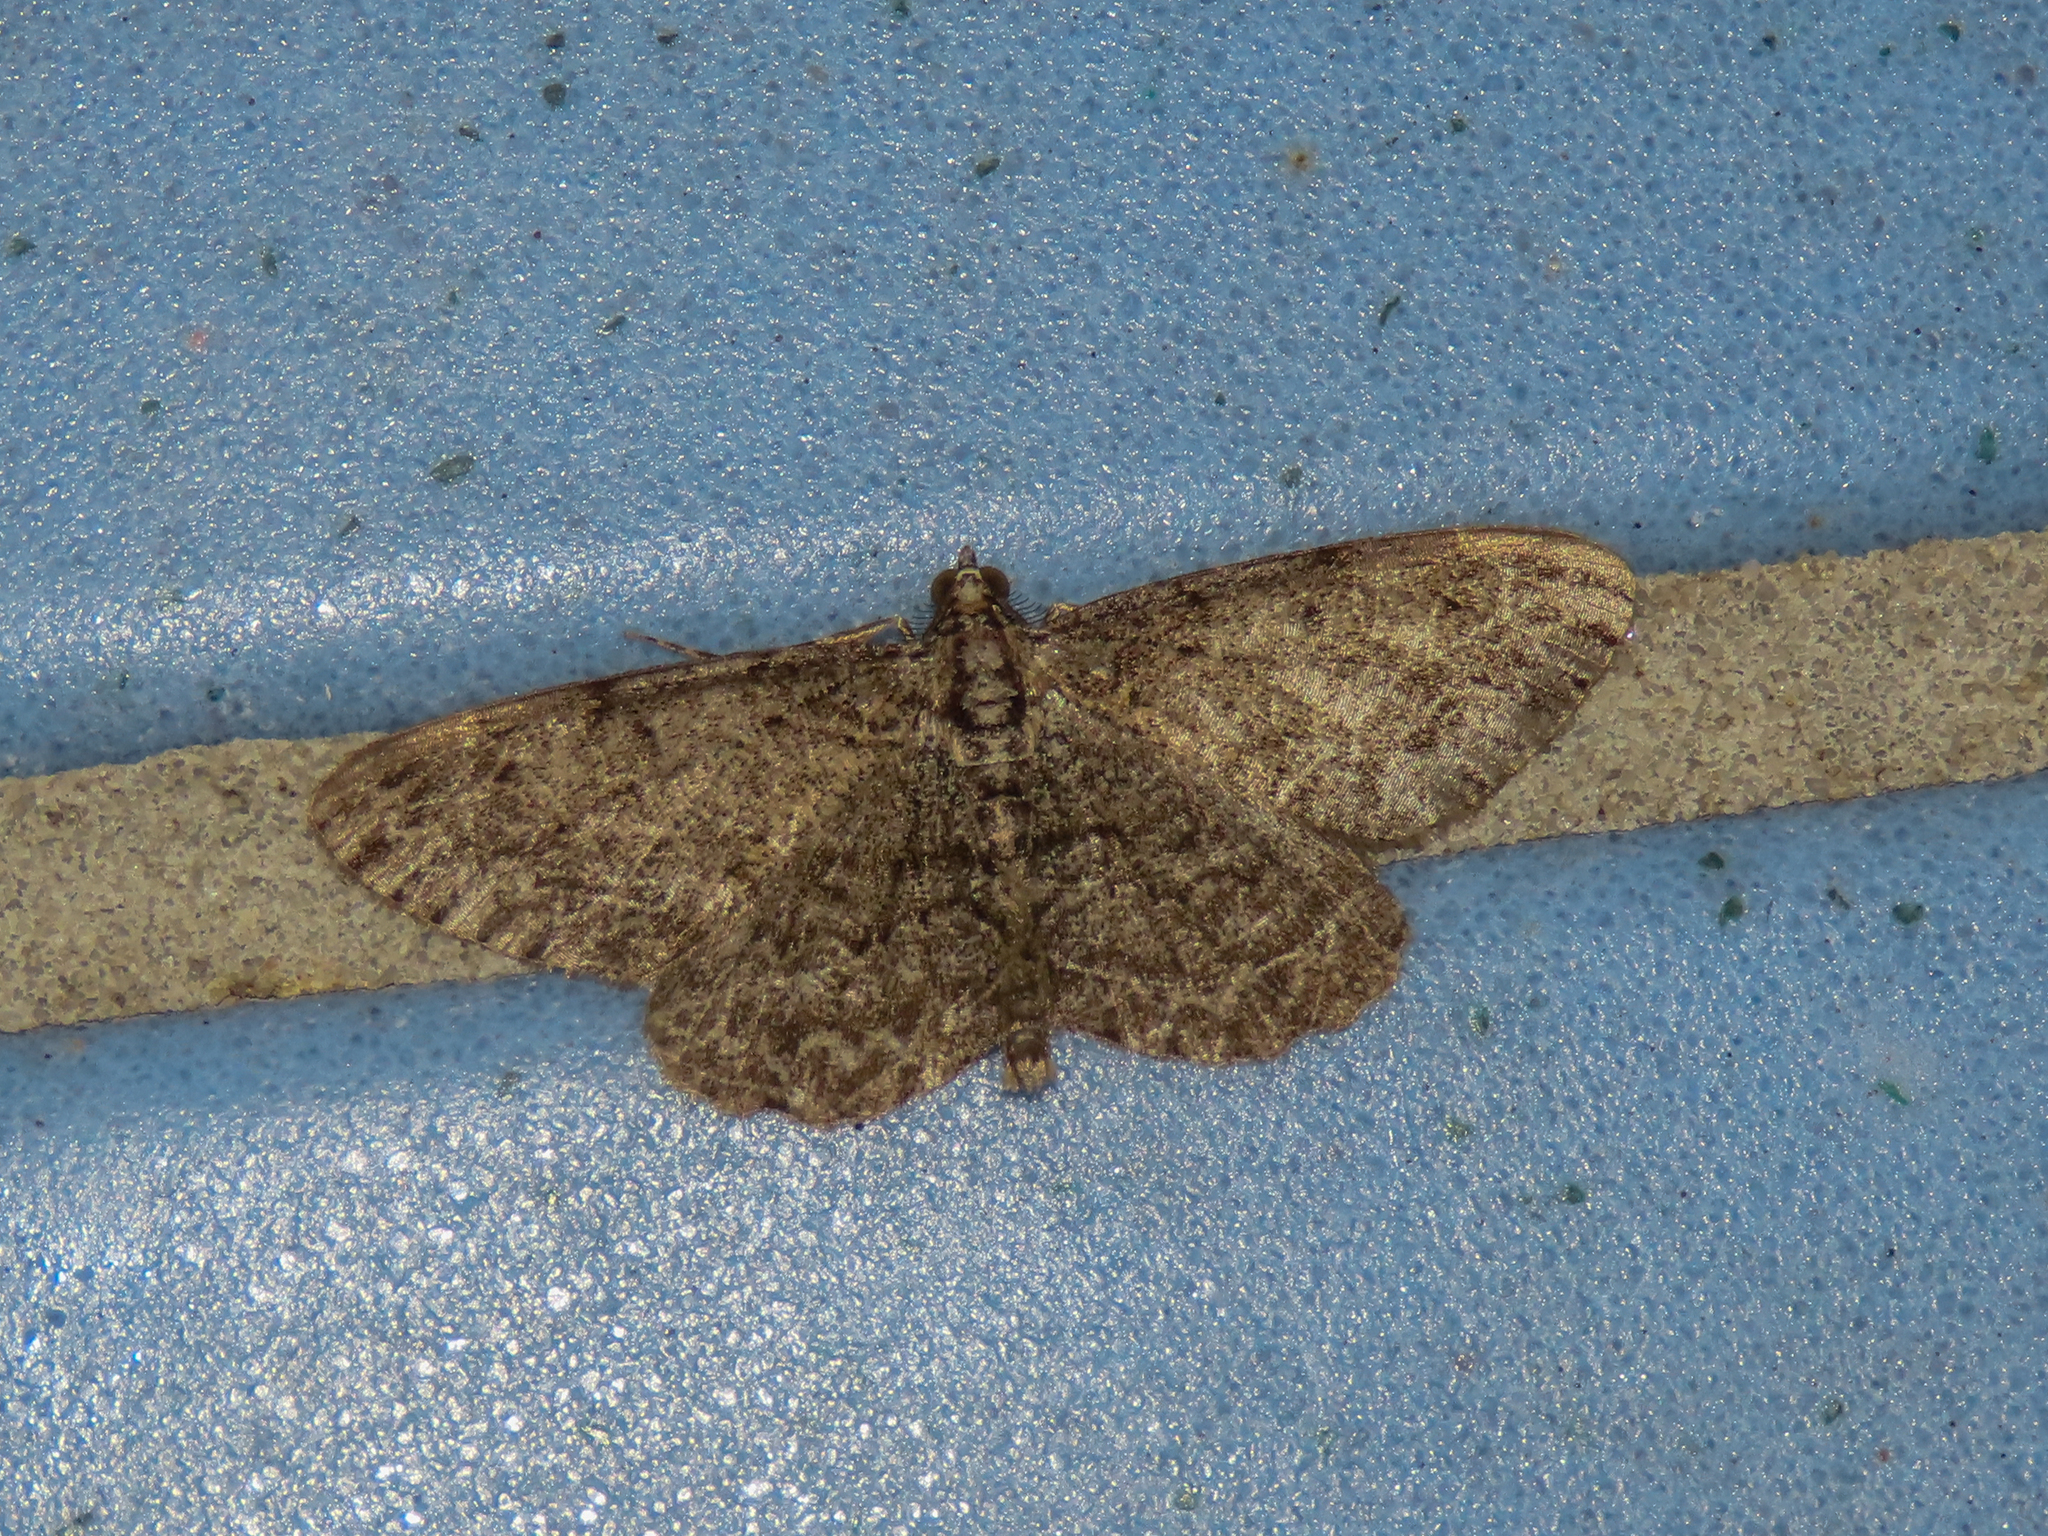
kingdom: Animalia
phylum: Arthropoda
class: Insecta
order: Lepidoptera
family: Geometridae
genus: Protoboarmia
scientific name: Protoboarmia porcelaria
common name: Porcelain gray
